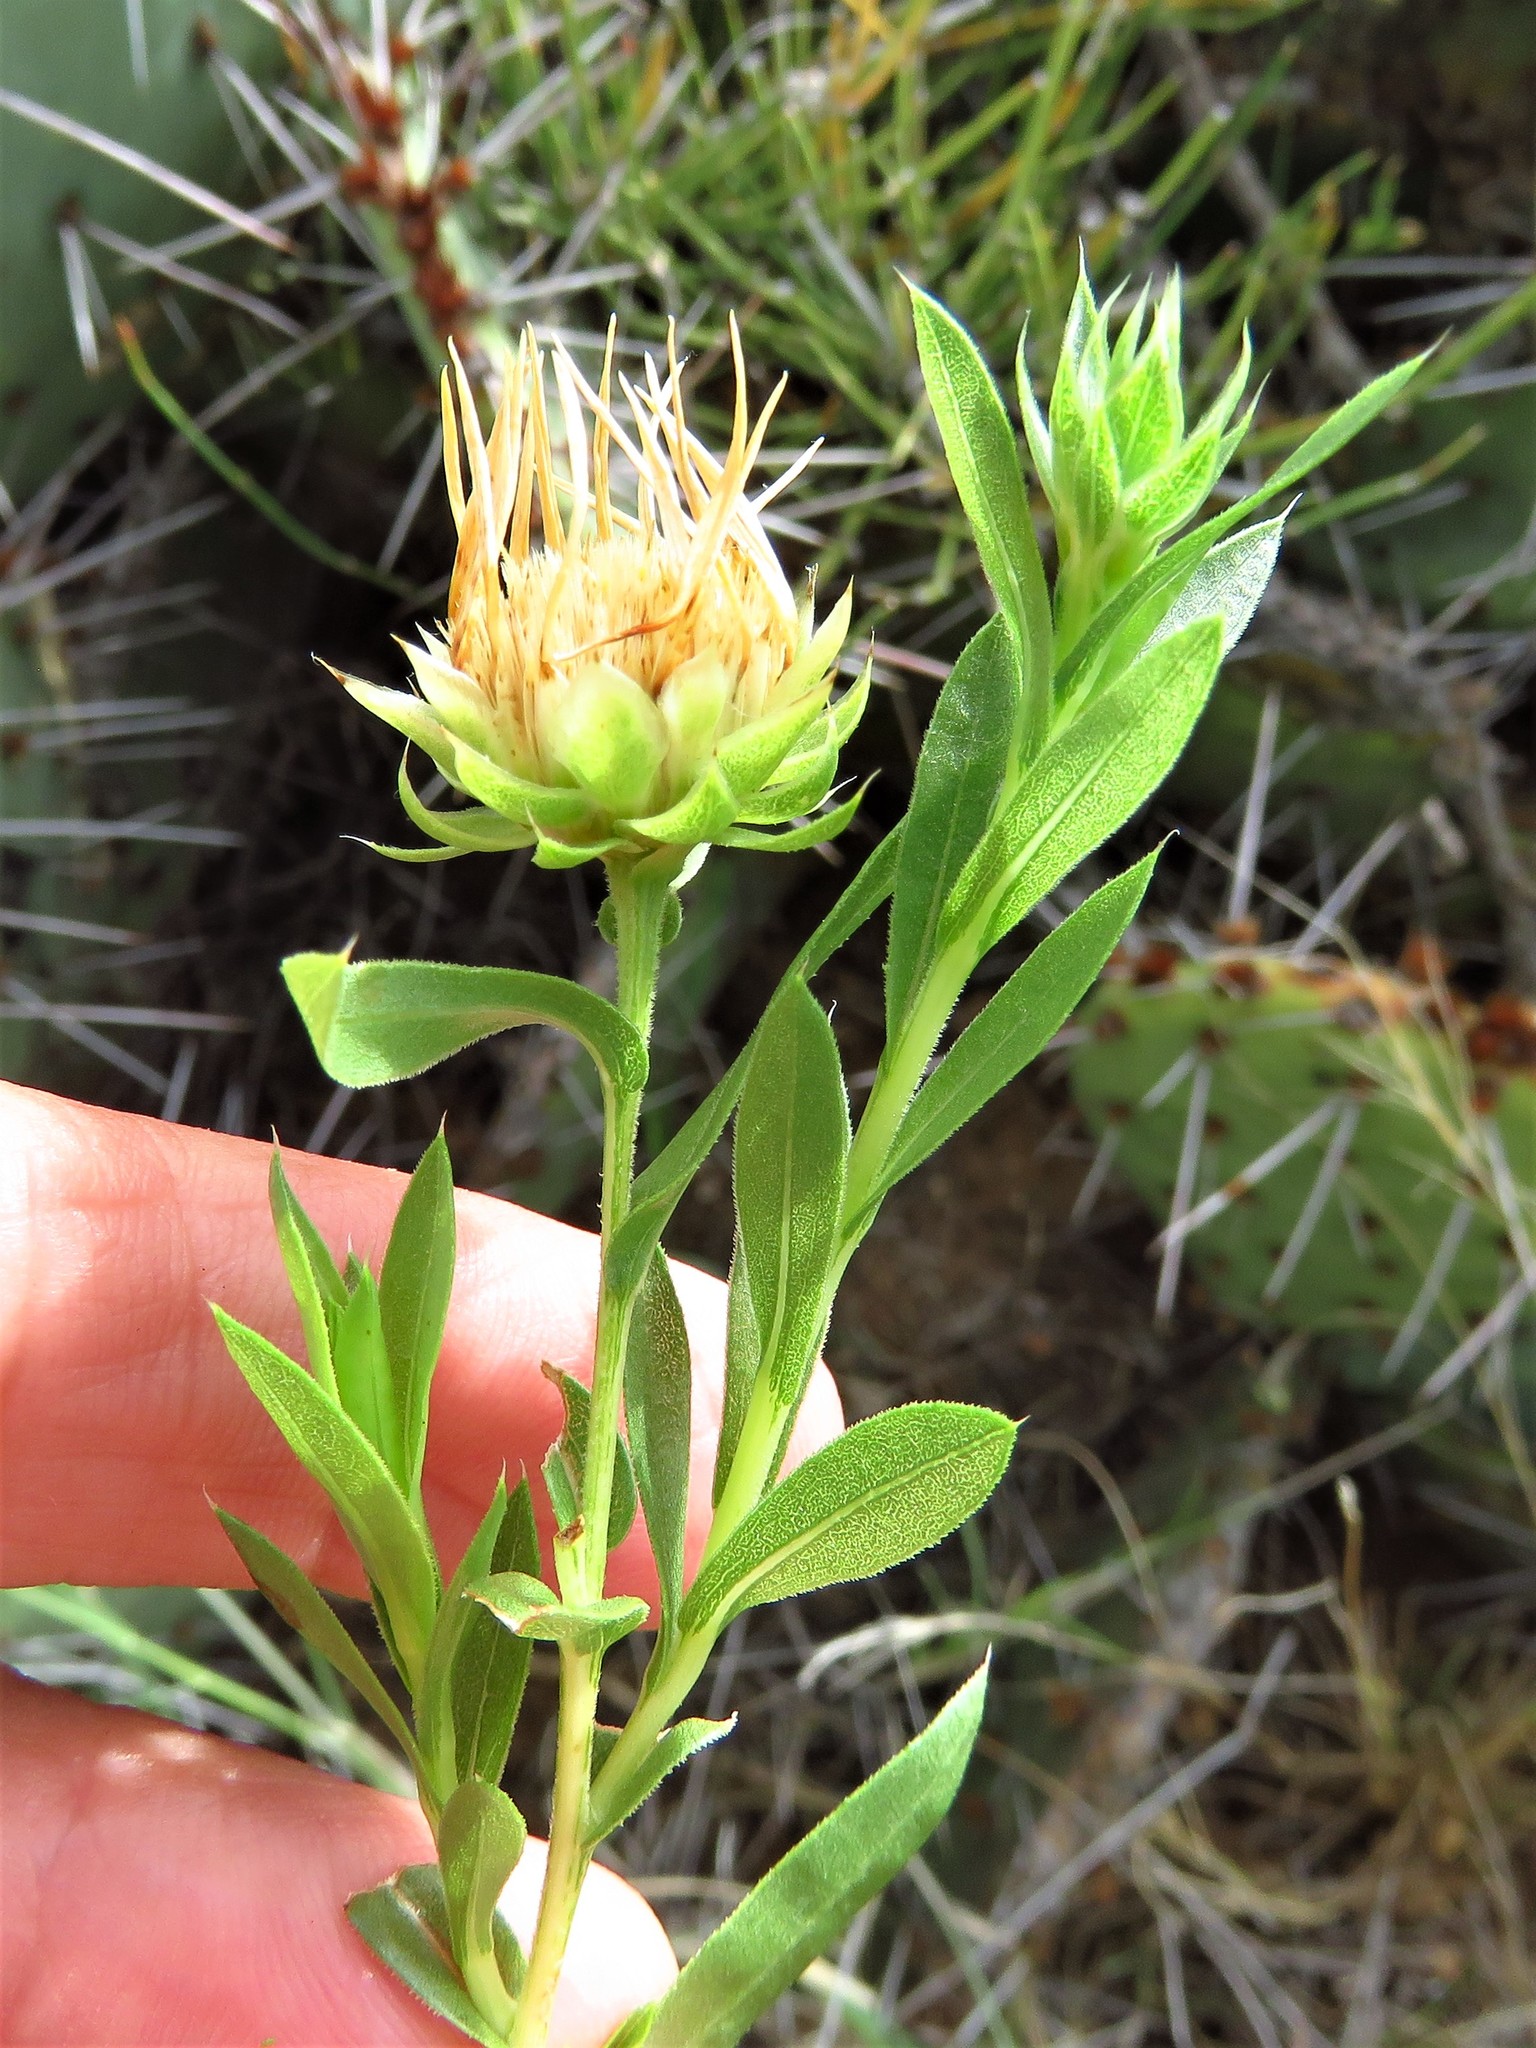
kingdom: Plantae
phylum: Tracheophyta
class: Magnoliopsida
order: Asterales
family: Asteraceae
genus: Xanthisma
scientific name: Xanthisma texanum
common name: Texas sleepy daisy
